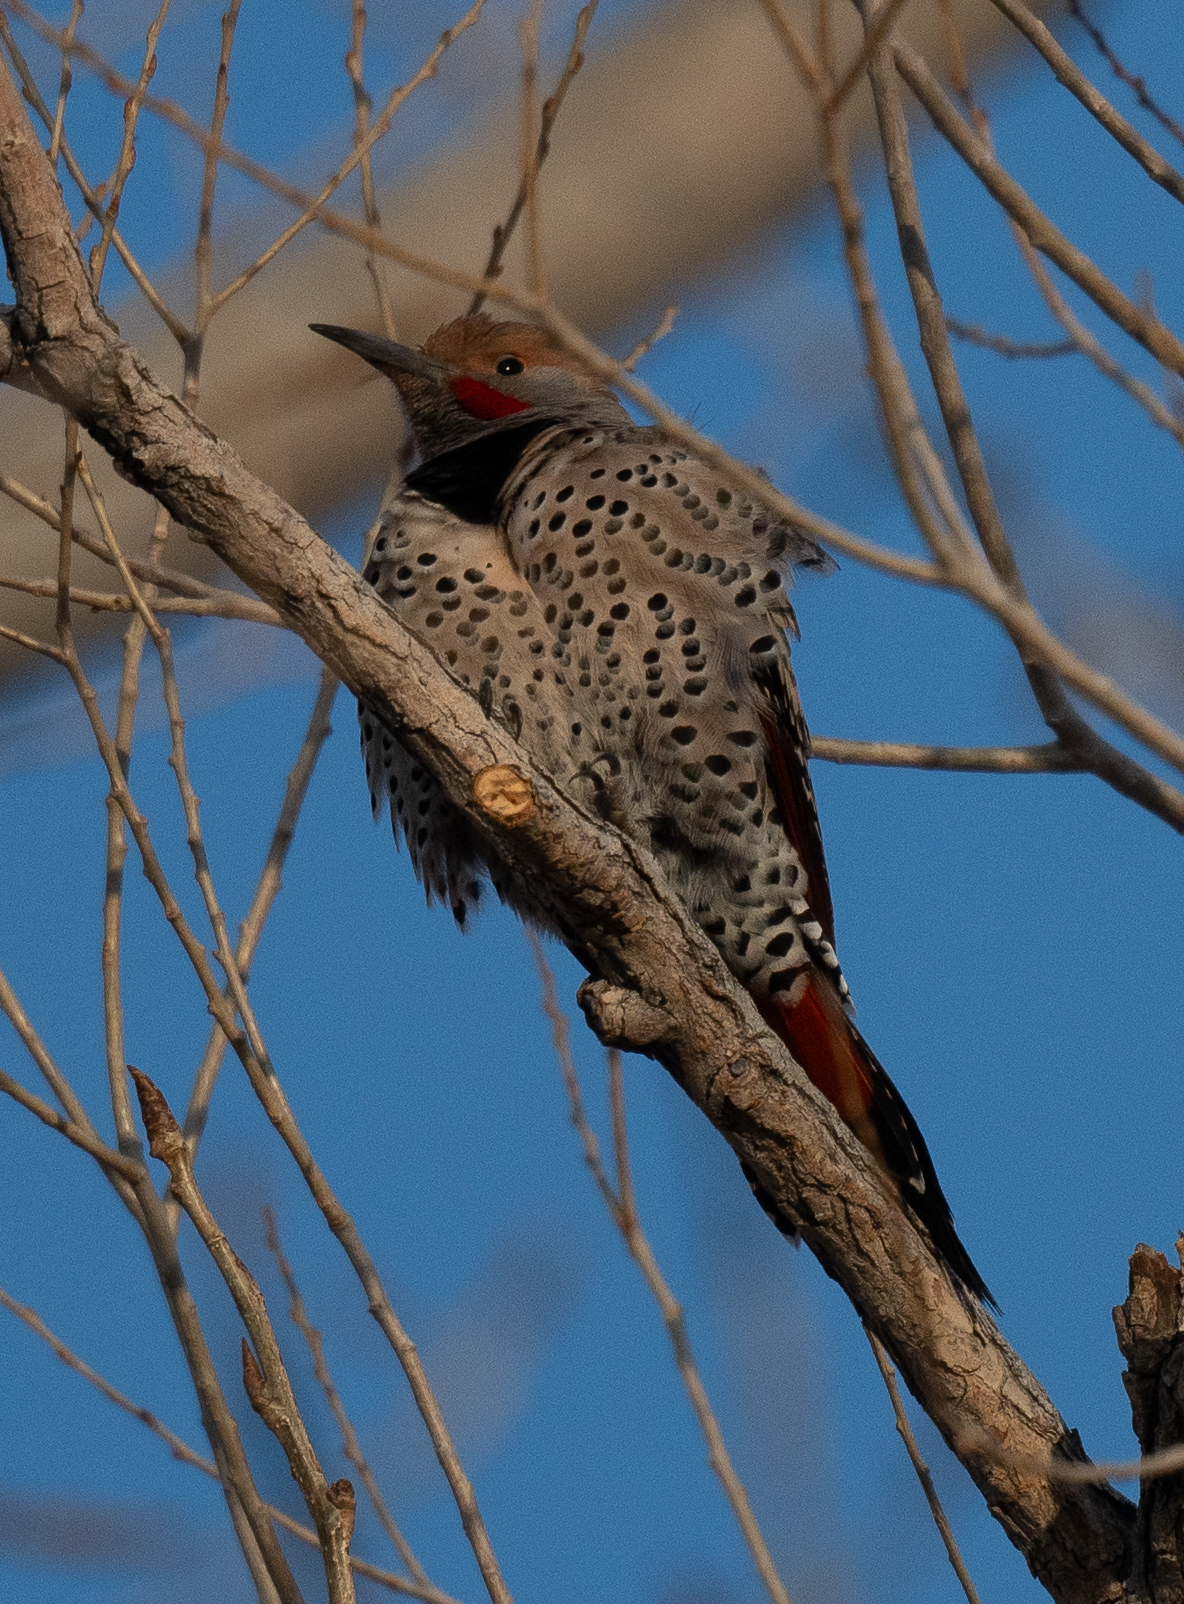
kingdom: Animalia
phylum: Chordata
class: Aves
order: Piciformes
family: Picidae
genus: Colaptes
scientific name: Colaptes auratus
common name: Northern flicker
